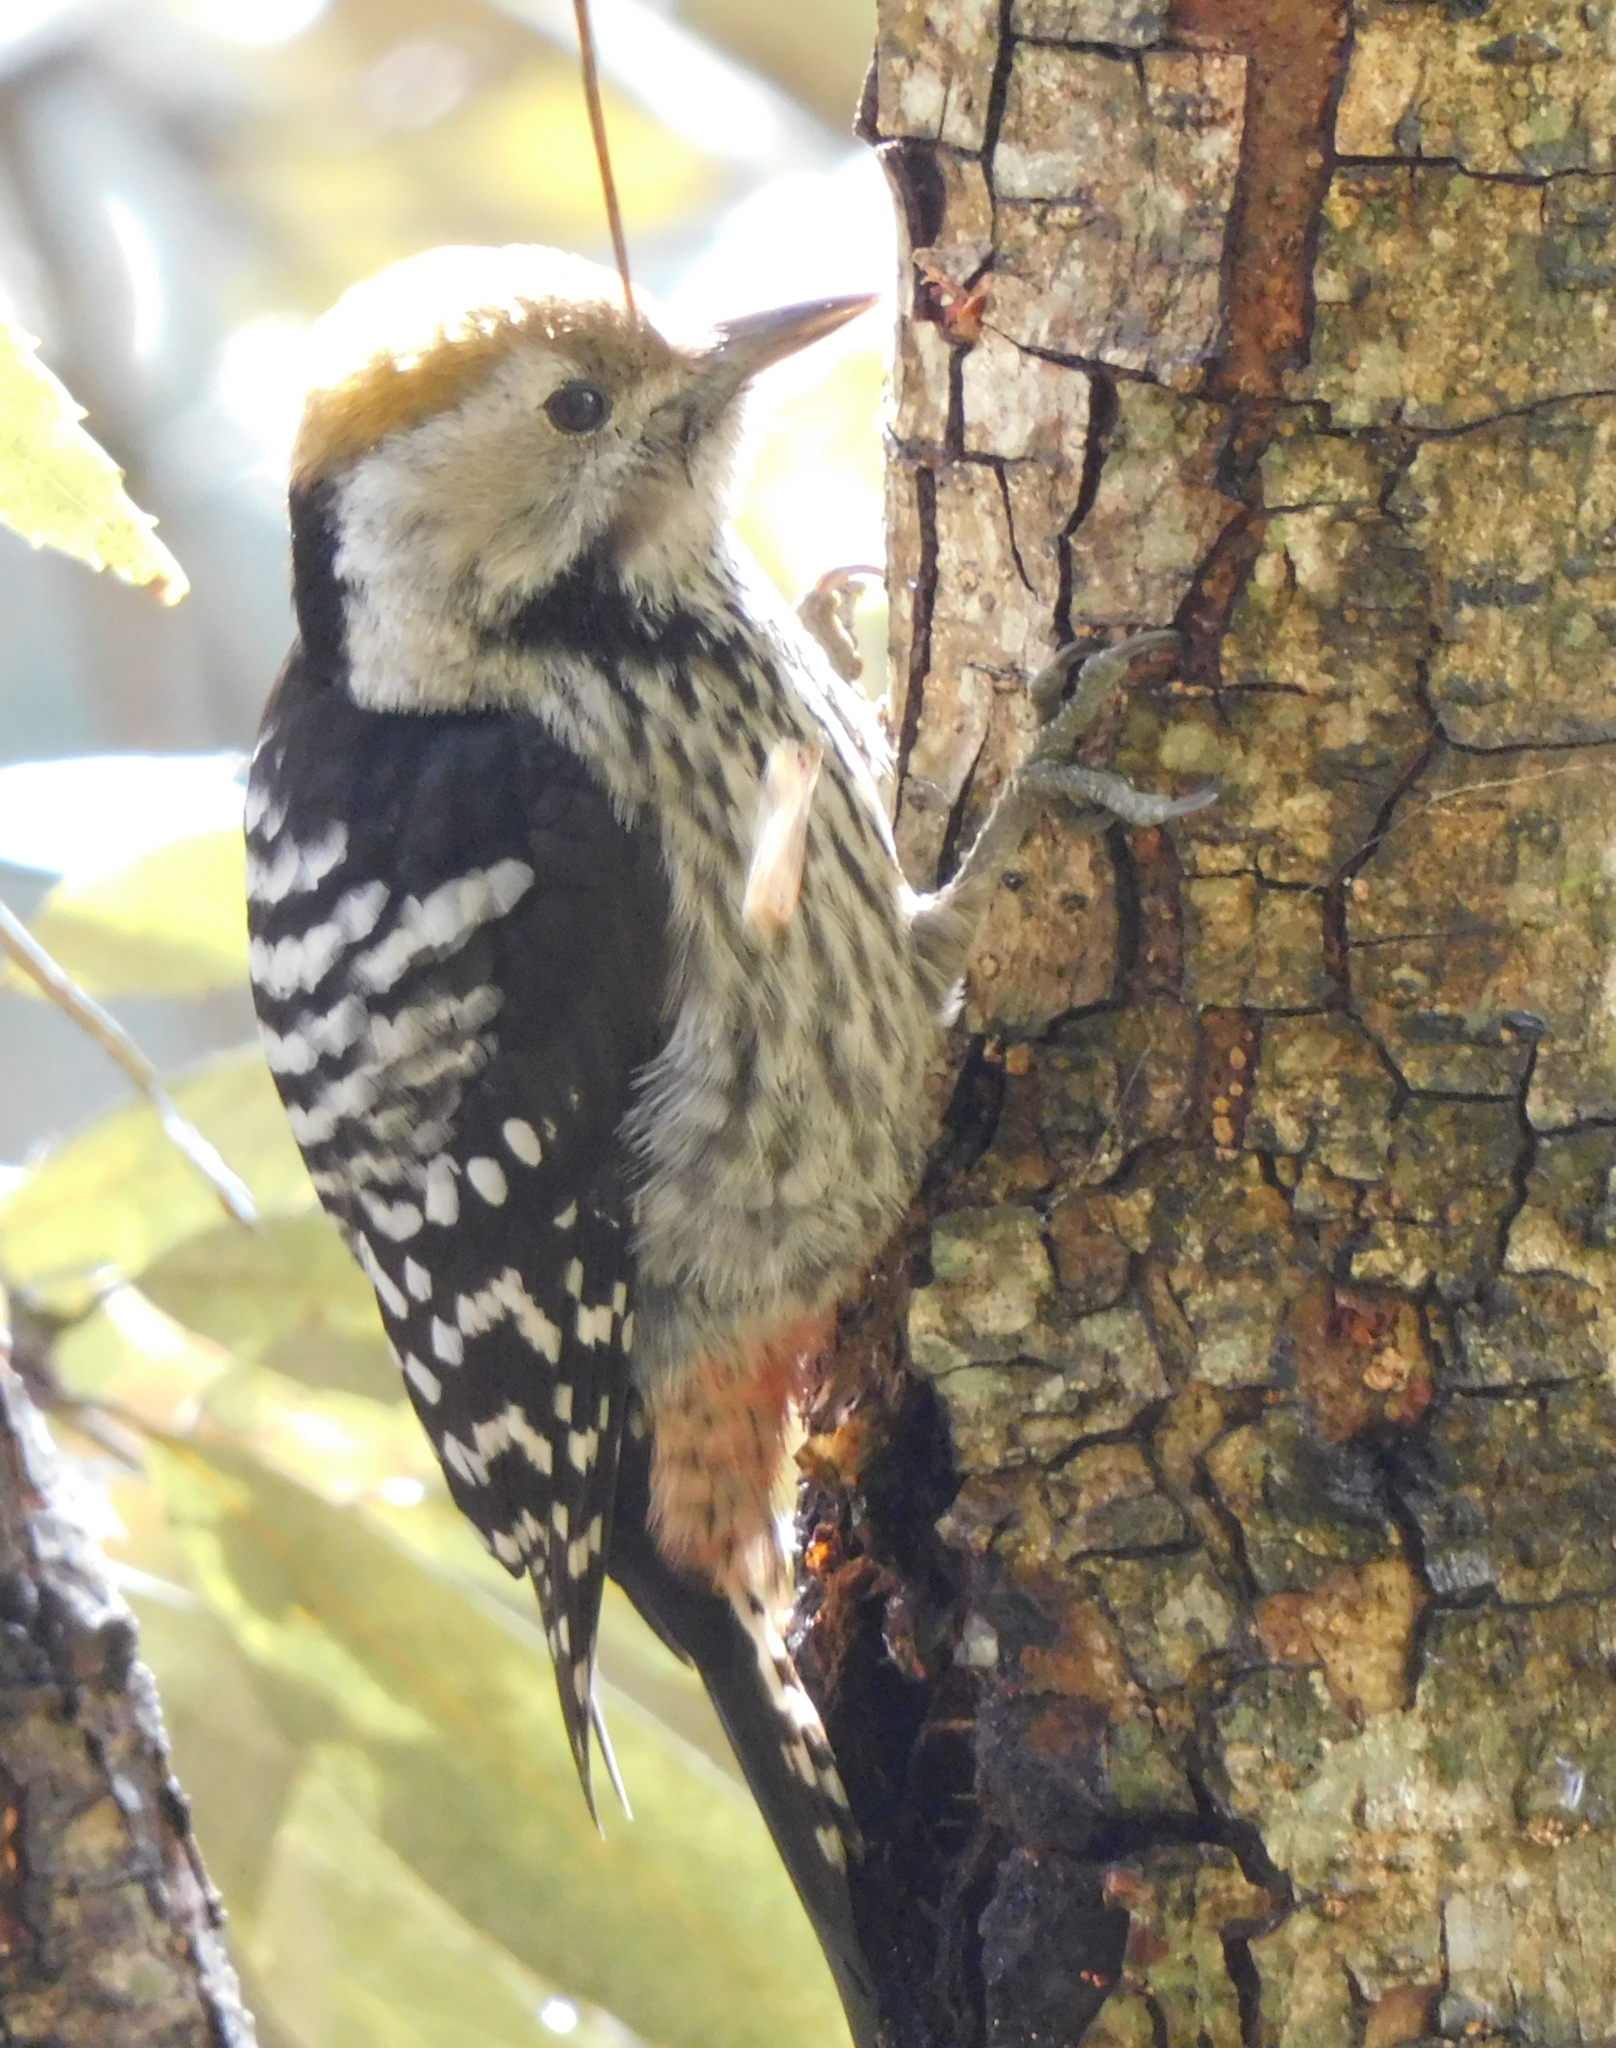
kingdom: Animalia
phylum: Chordata
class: Aves
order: Piciformes
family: Picidae
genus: Dendrocoptes
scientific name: Dendrocoptes auriceps
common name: Brown-fronted woodpecker
